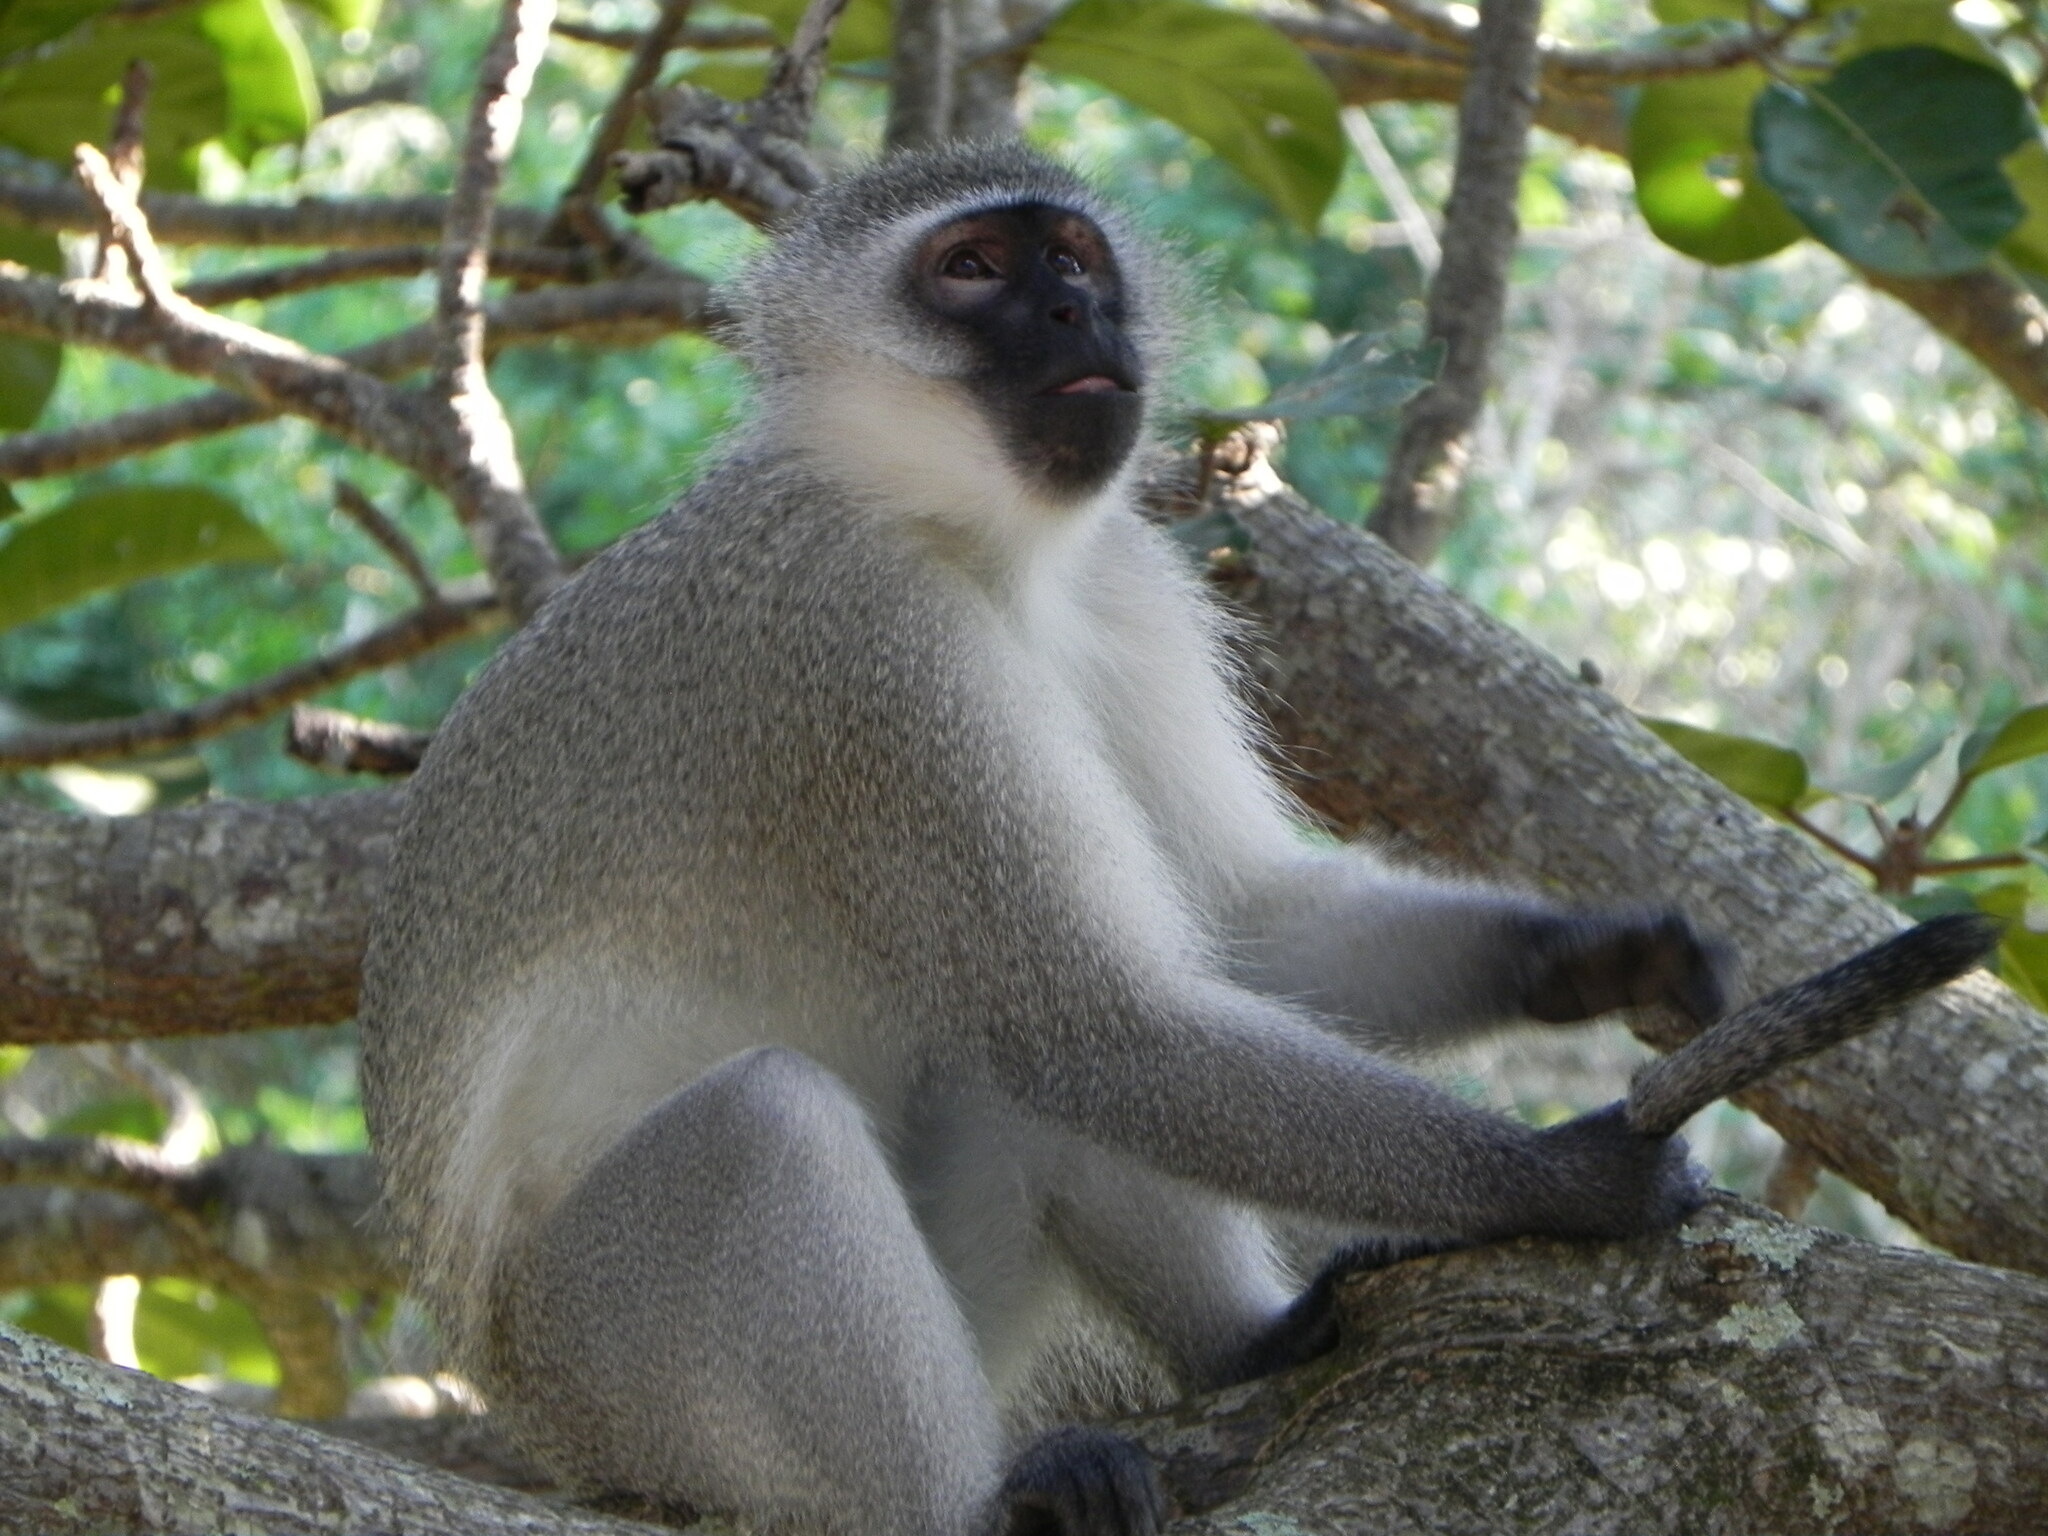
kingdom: Animalia
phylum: Chordata
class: Mammalia
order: Primates
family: Cercopithecidae
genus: Chlorocebus
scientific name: Chlorocebus pygerythrus
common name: Vervet monkey
